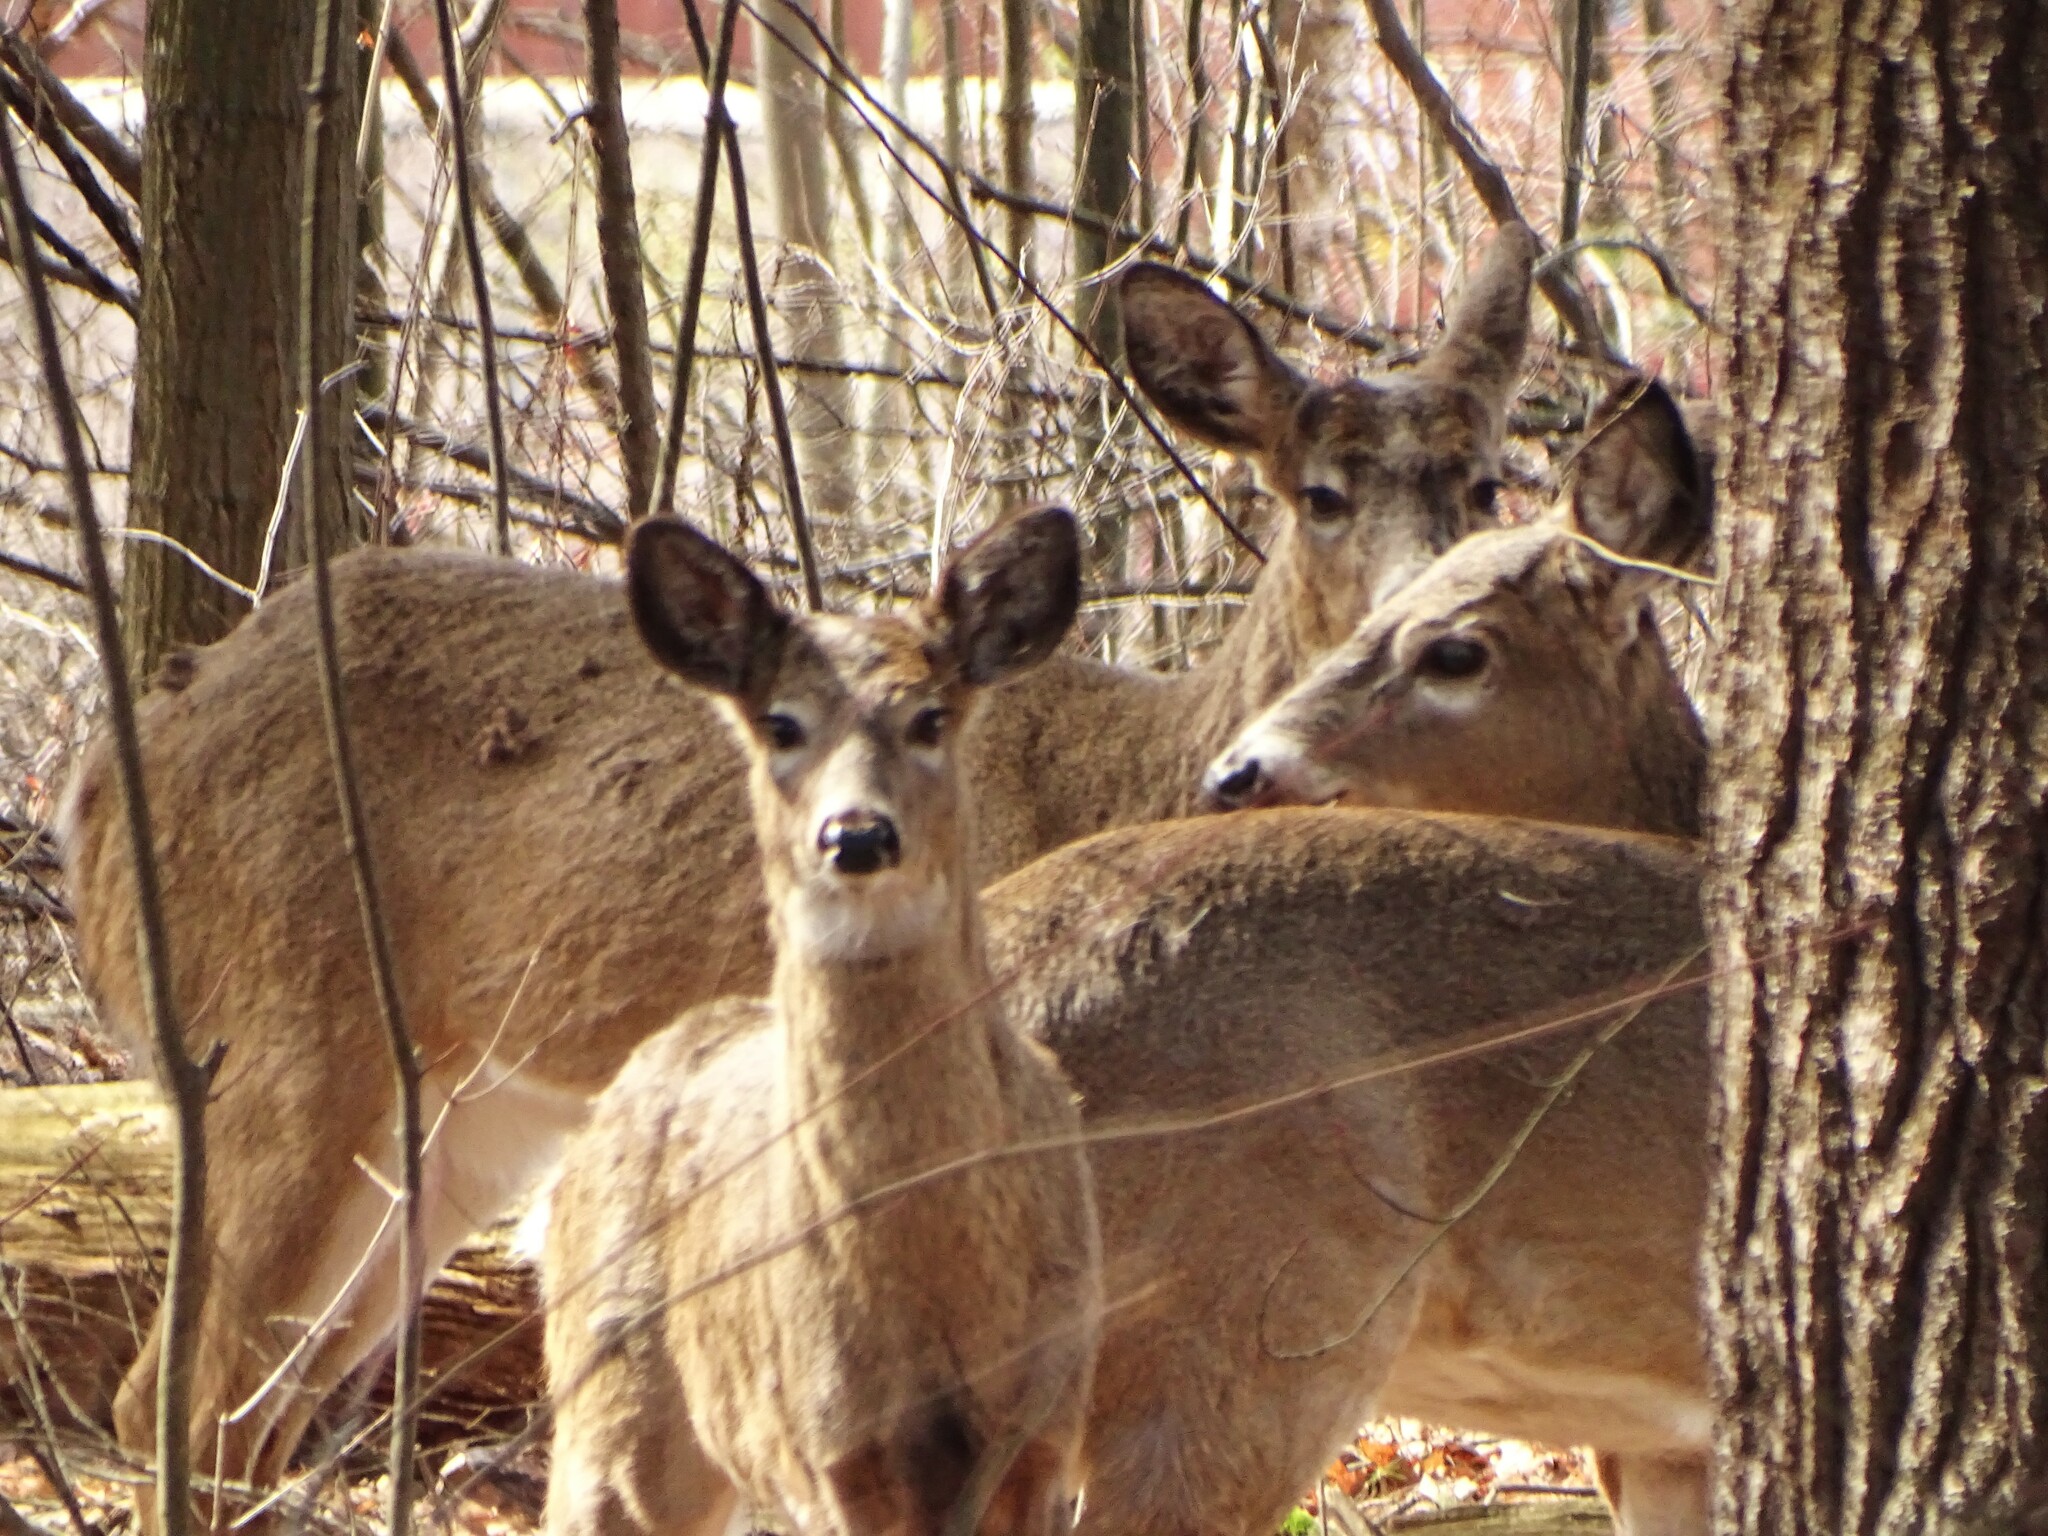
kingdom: Animalia
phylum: Chordata
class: Mammalia
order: Artiodactyla
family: Cervidae
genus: Odocoileus
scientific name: Odocoileus virginianus
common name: White-tailed deer
